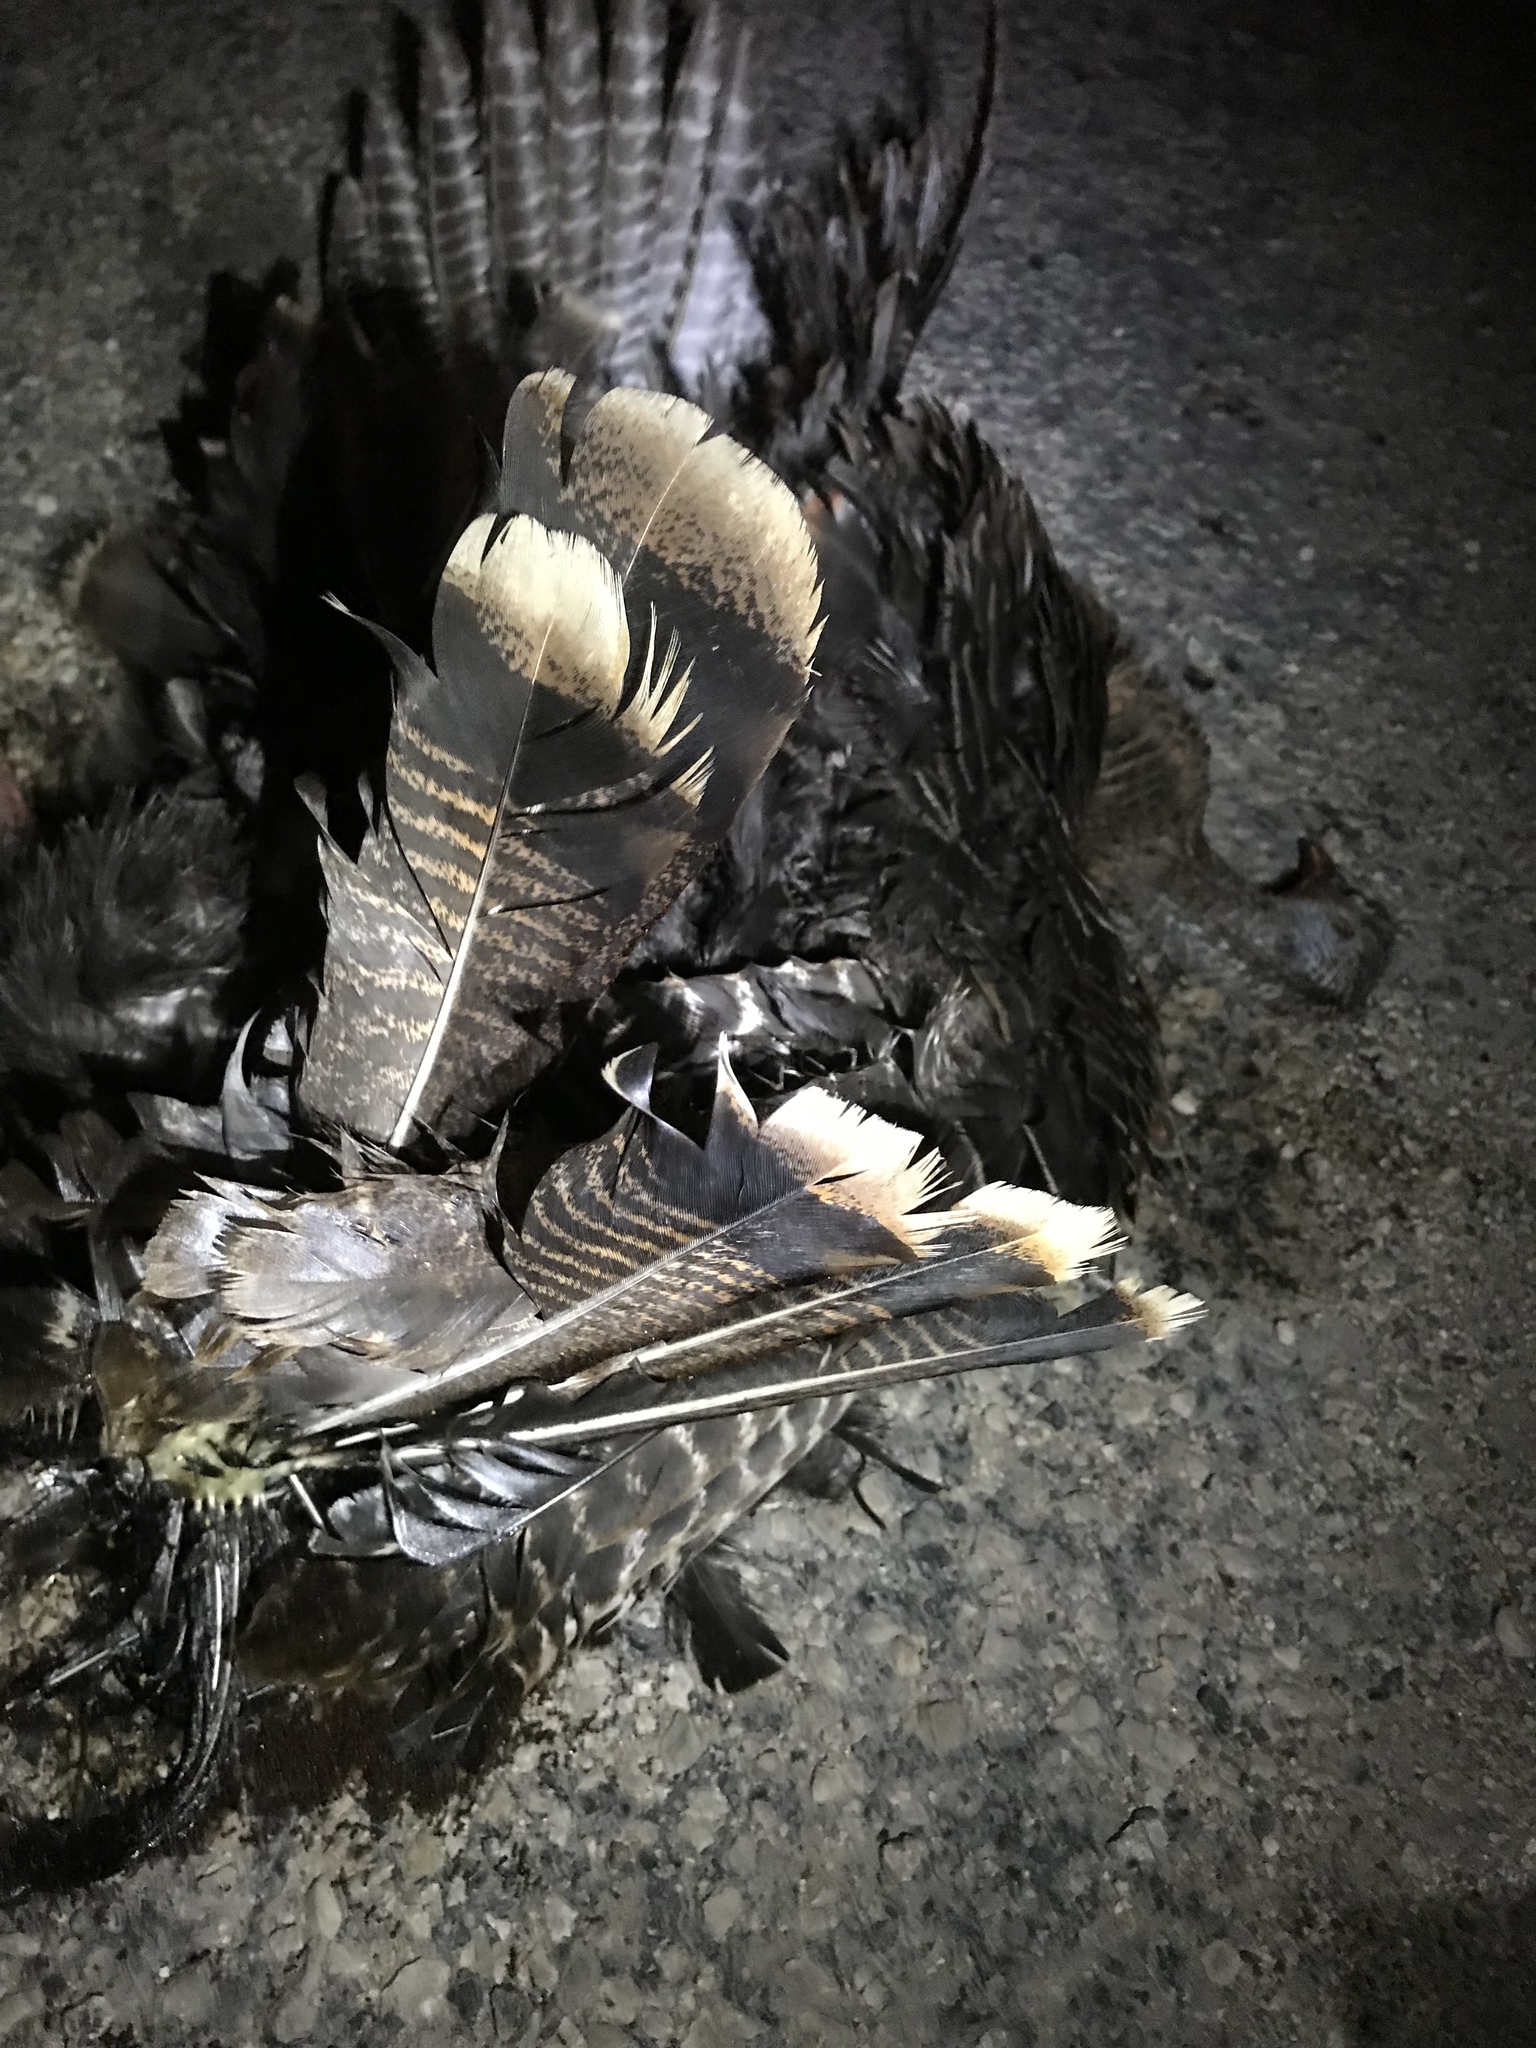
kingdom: Animalia
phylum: Chordata
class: Aves
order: Galliformes
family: Phasianidae
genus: Meleagris
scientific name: Meleagris gallopavo
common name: Wild turkey
